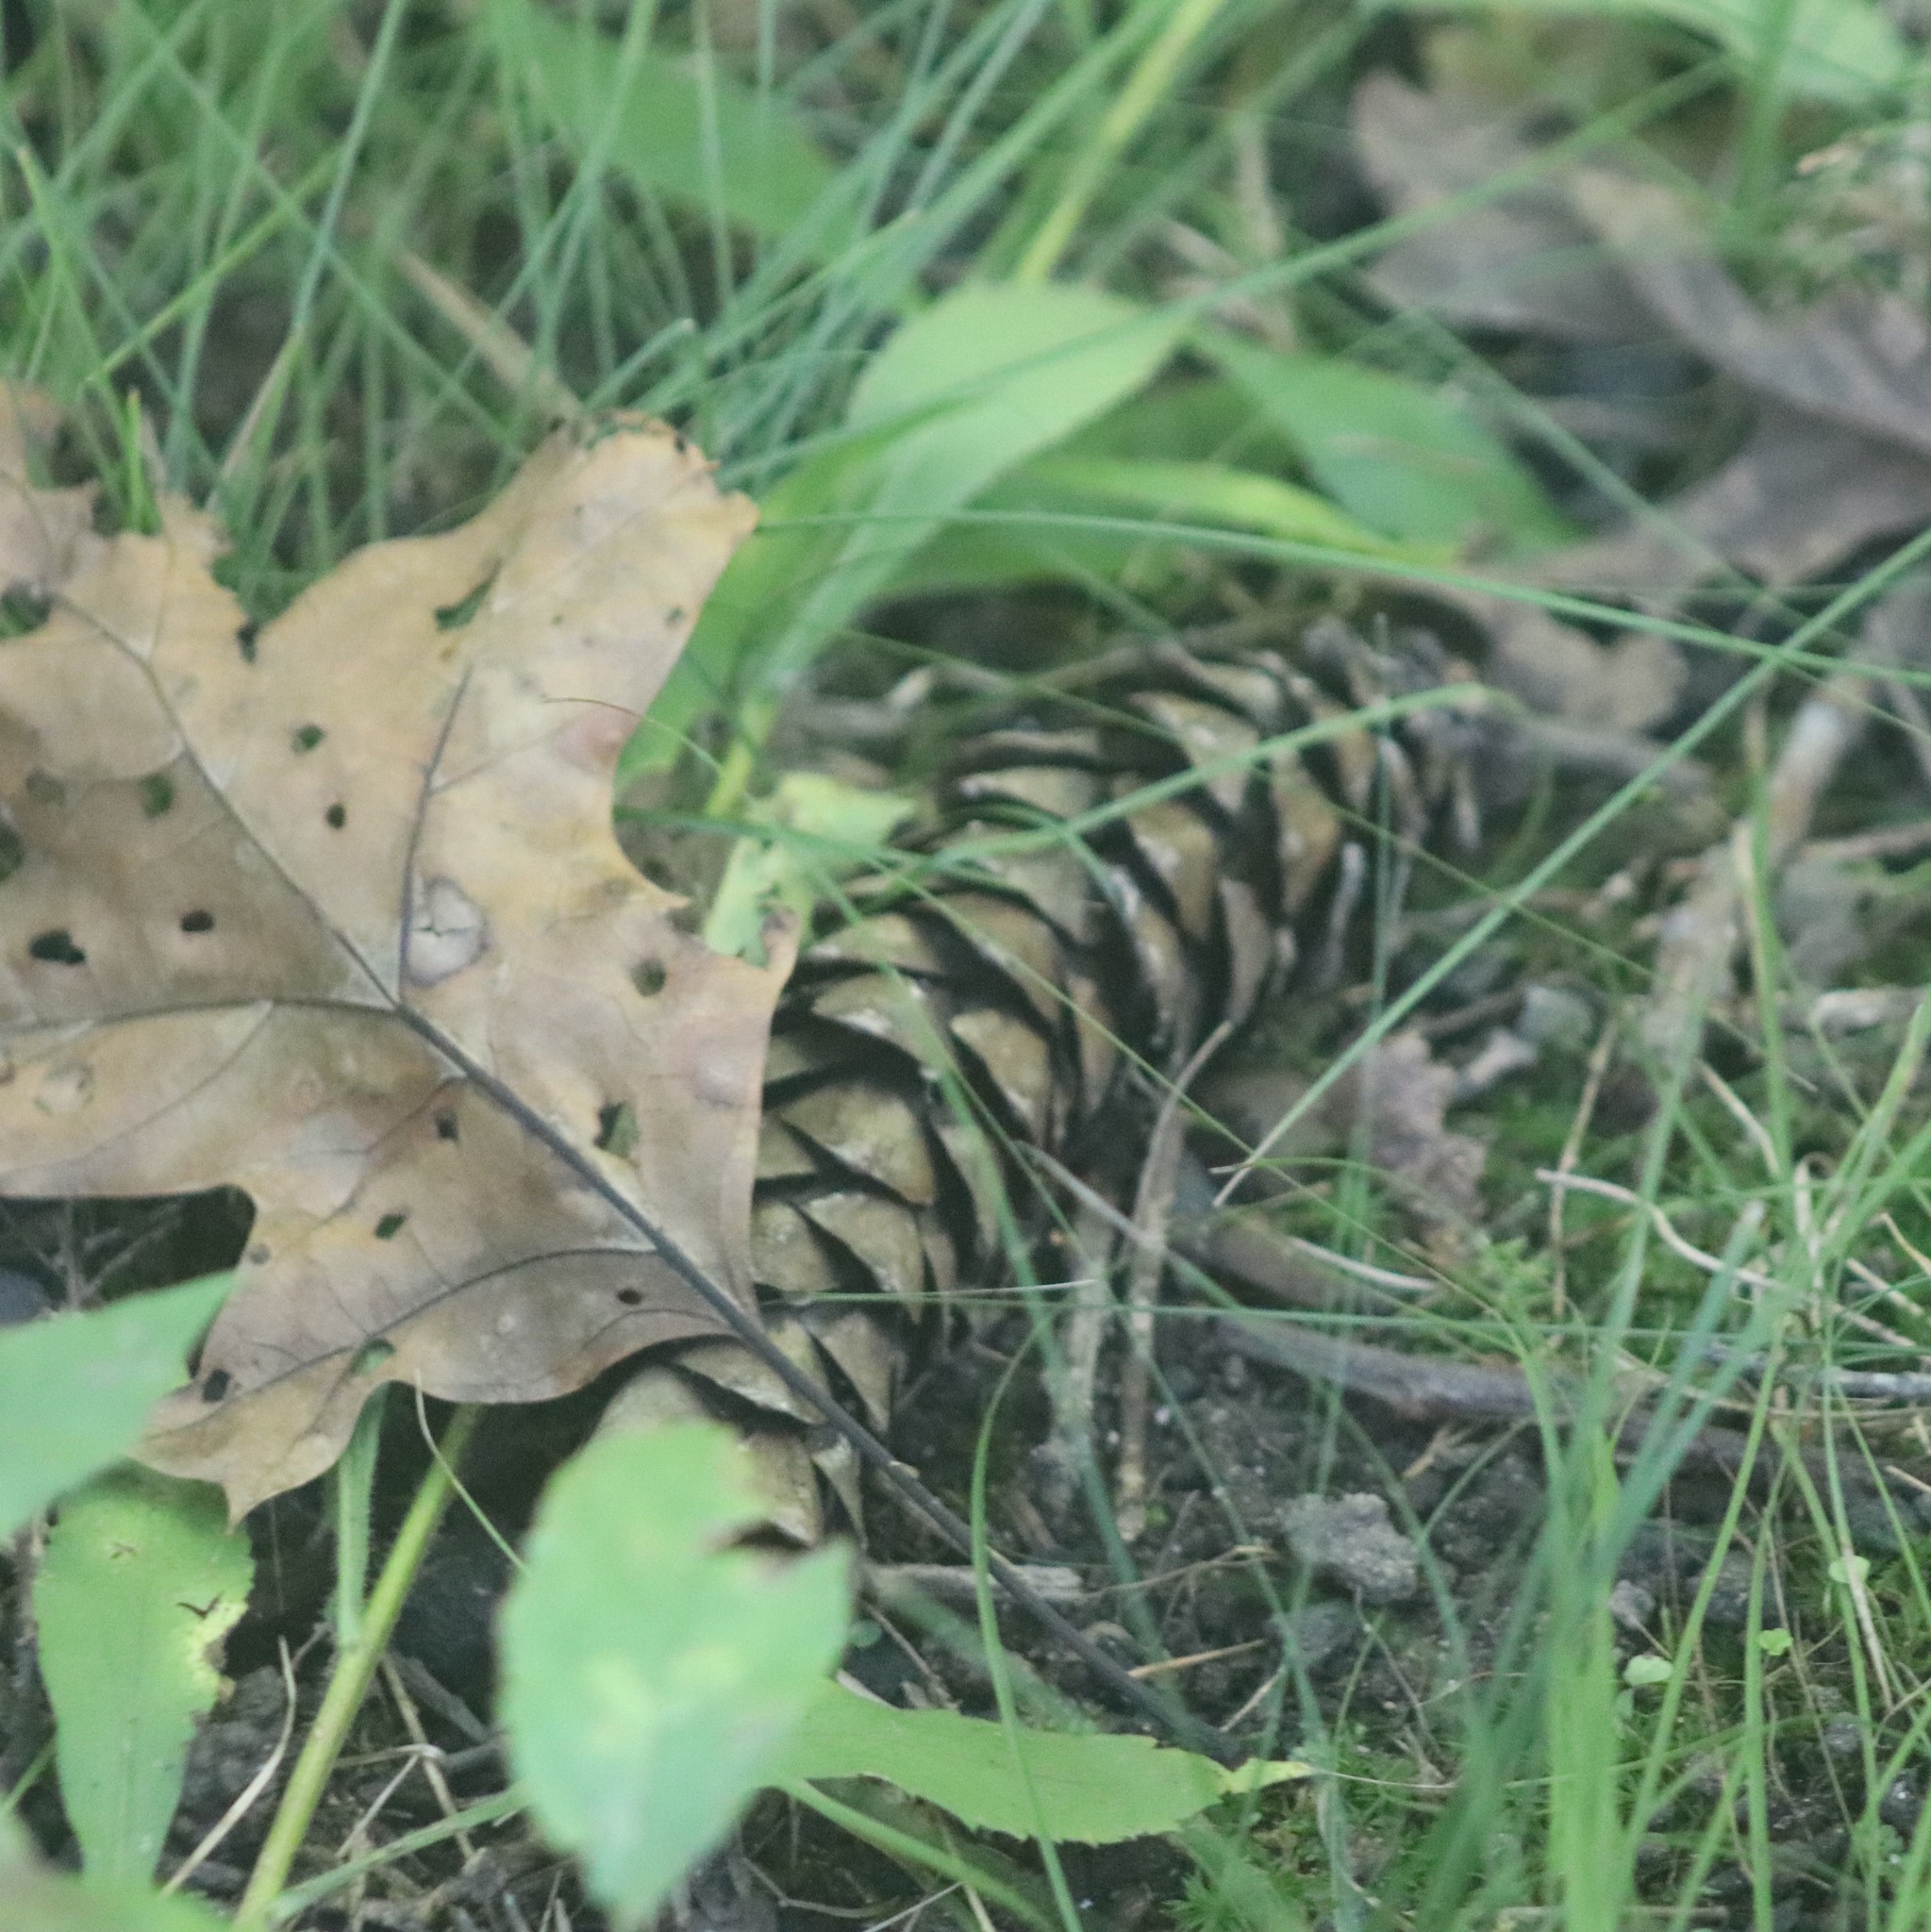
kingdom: Plantae
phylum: Tracheophyta
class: Pinopsida
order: Pinales
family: Pinaceae
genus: Pinus
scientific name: Pinus strobus
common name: Weymouth pine
